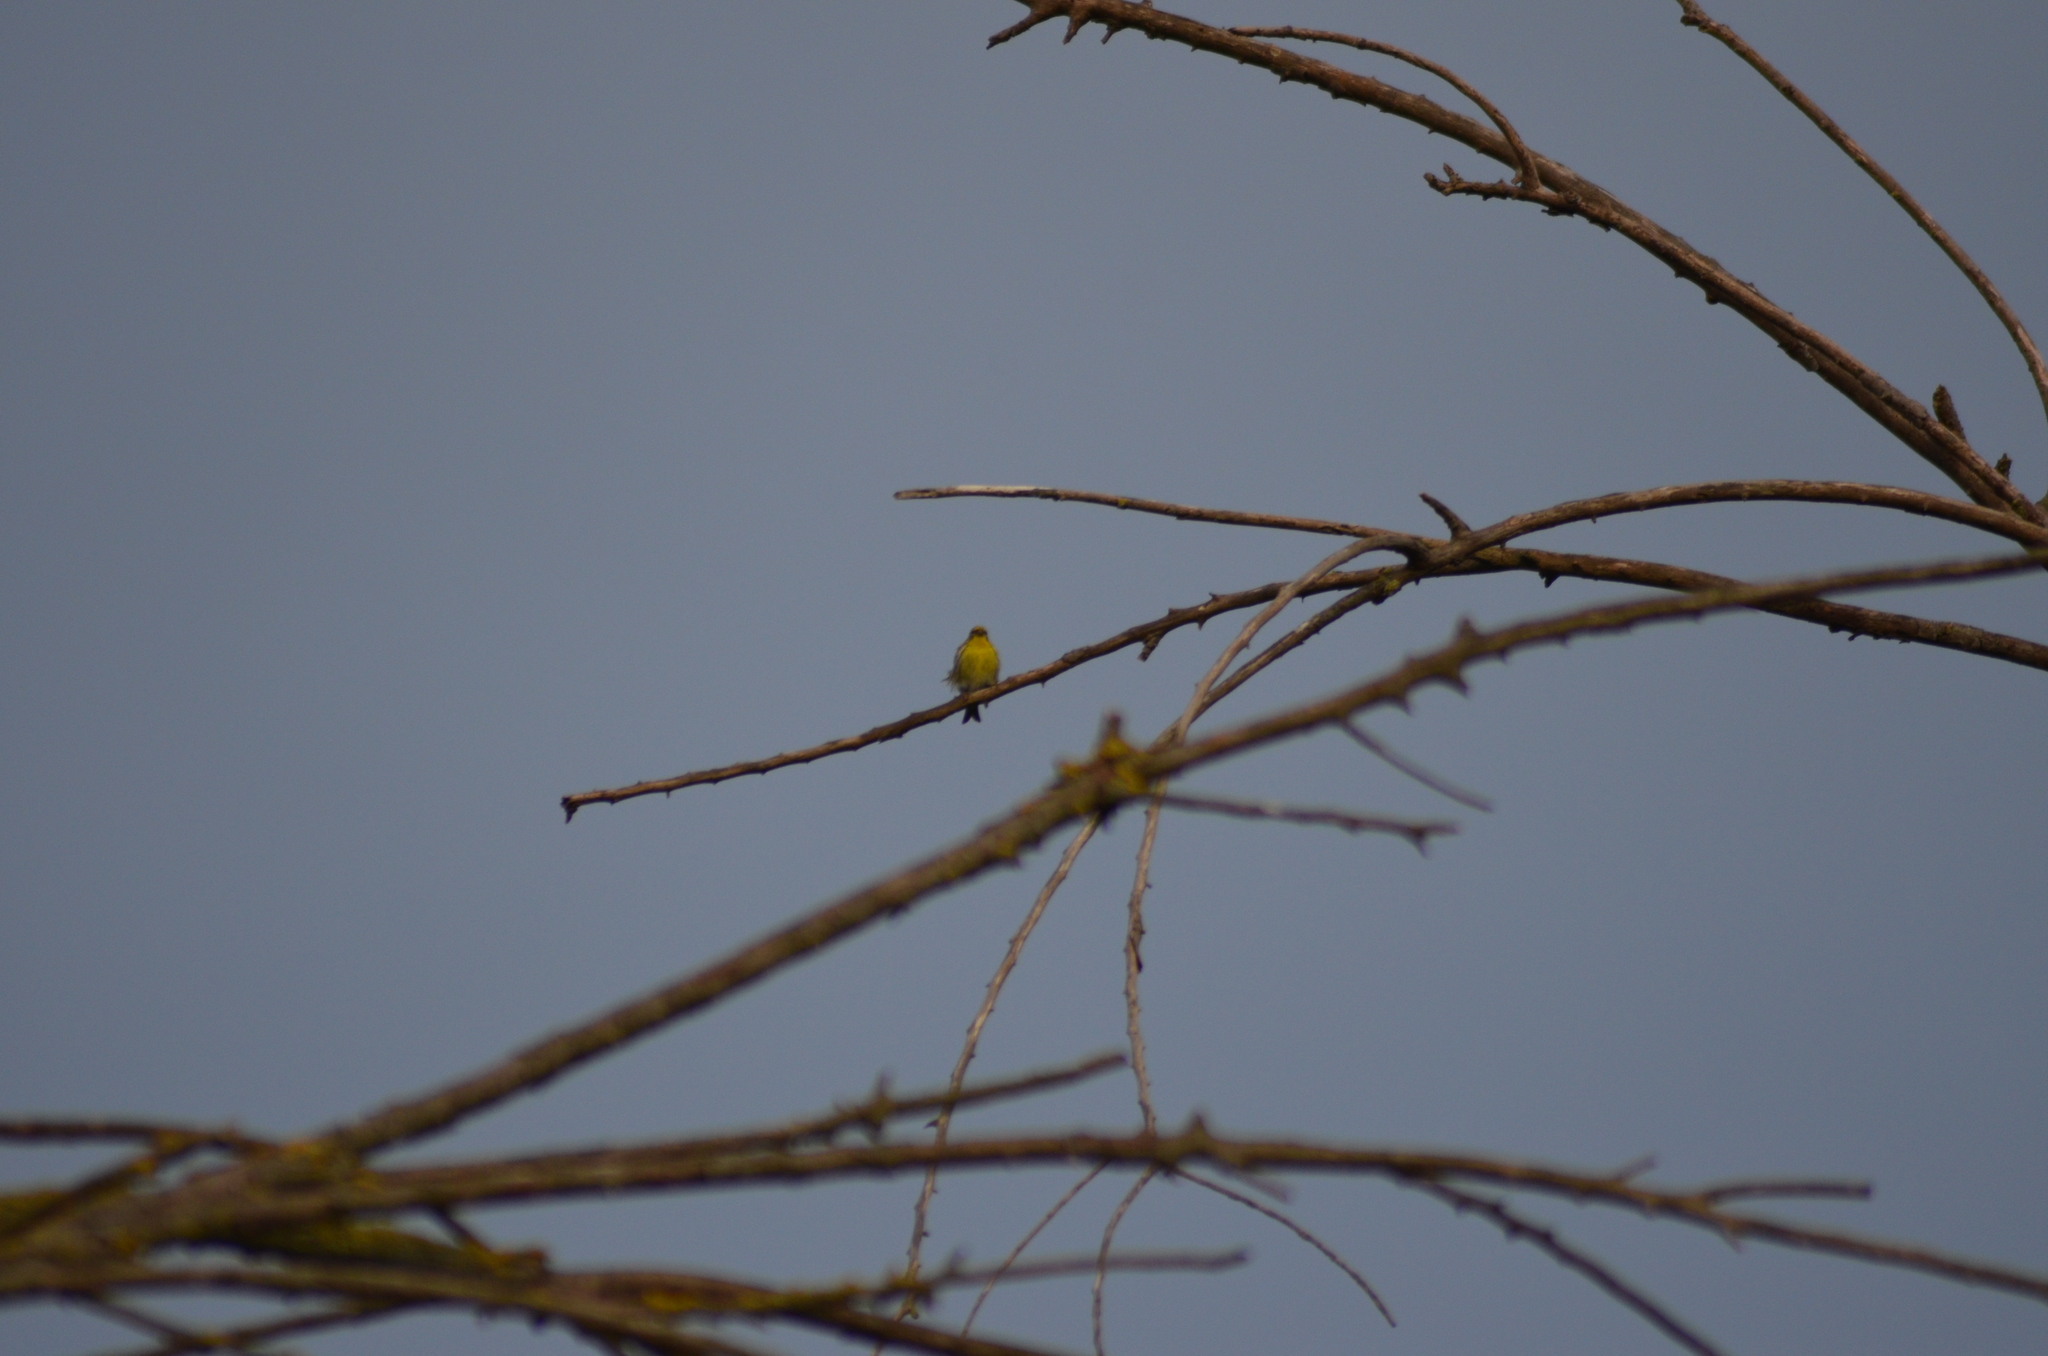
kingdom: Animalia
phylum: Chordata
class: Aves
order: Passeriformes
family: Fringillidae
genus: Serinus
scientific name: Serinus serinus
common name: European serin
